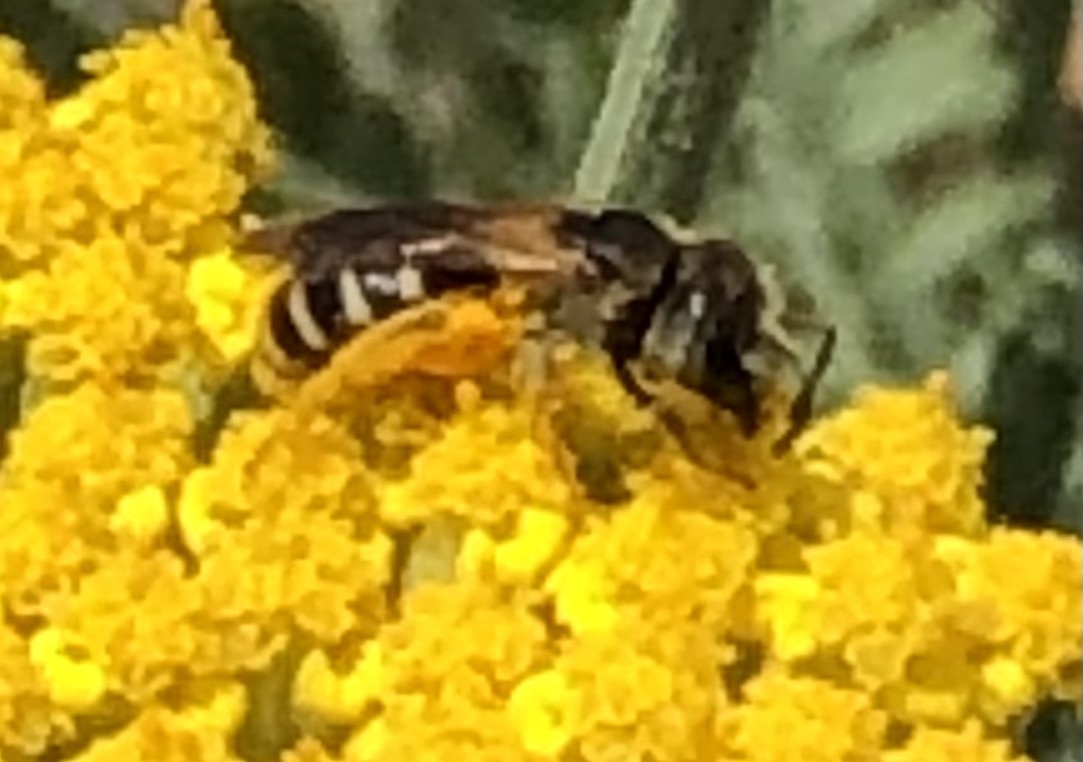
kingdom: Animalia
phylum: Arthropoda
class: Insecta
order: Hymenoptera
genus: Odontalictus
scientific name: Odontalictus
